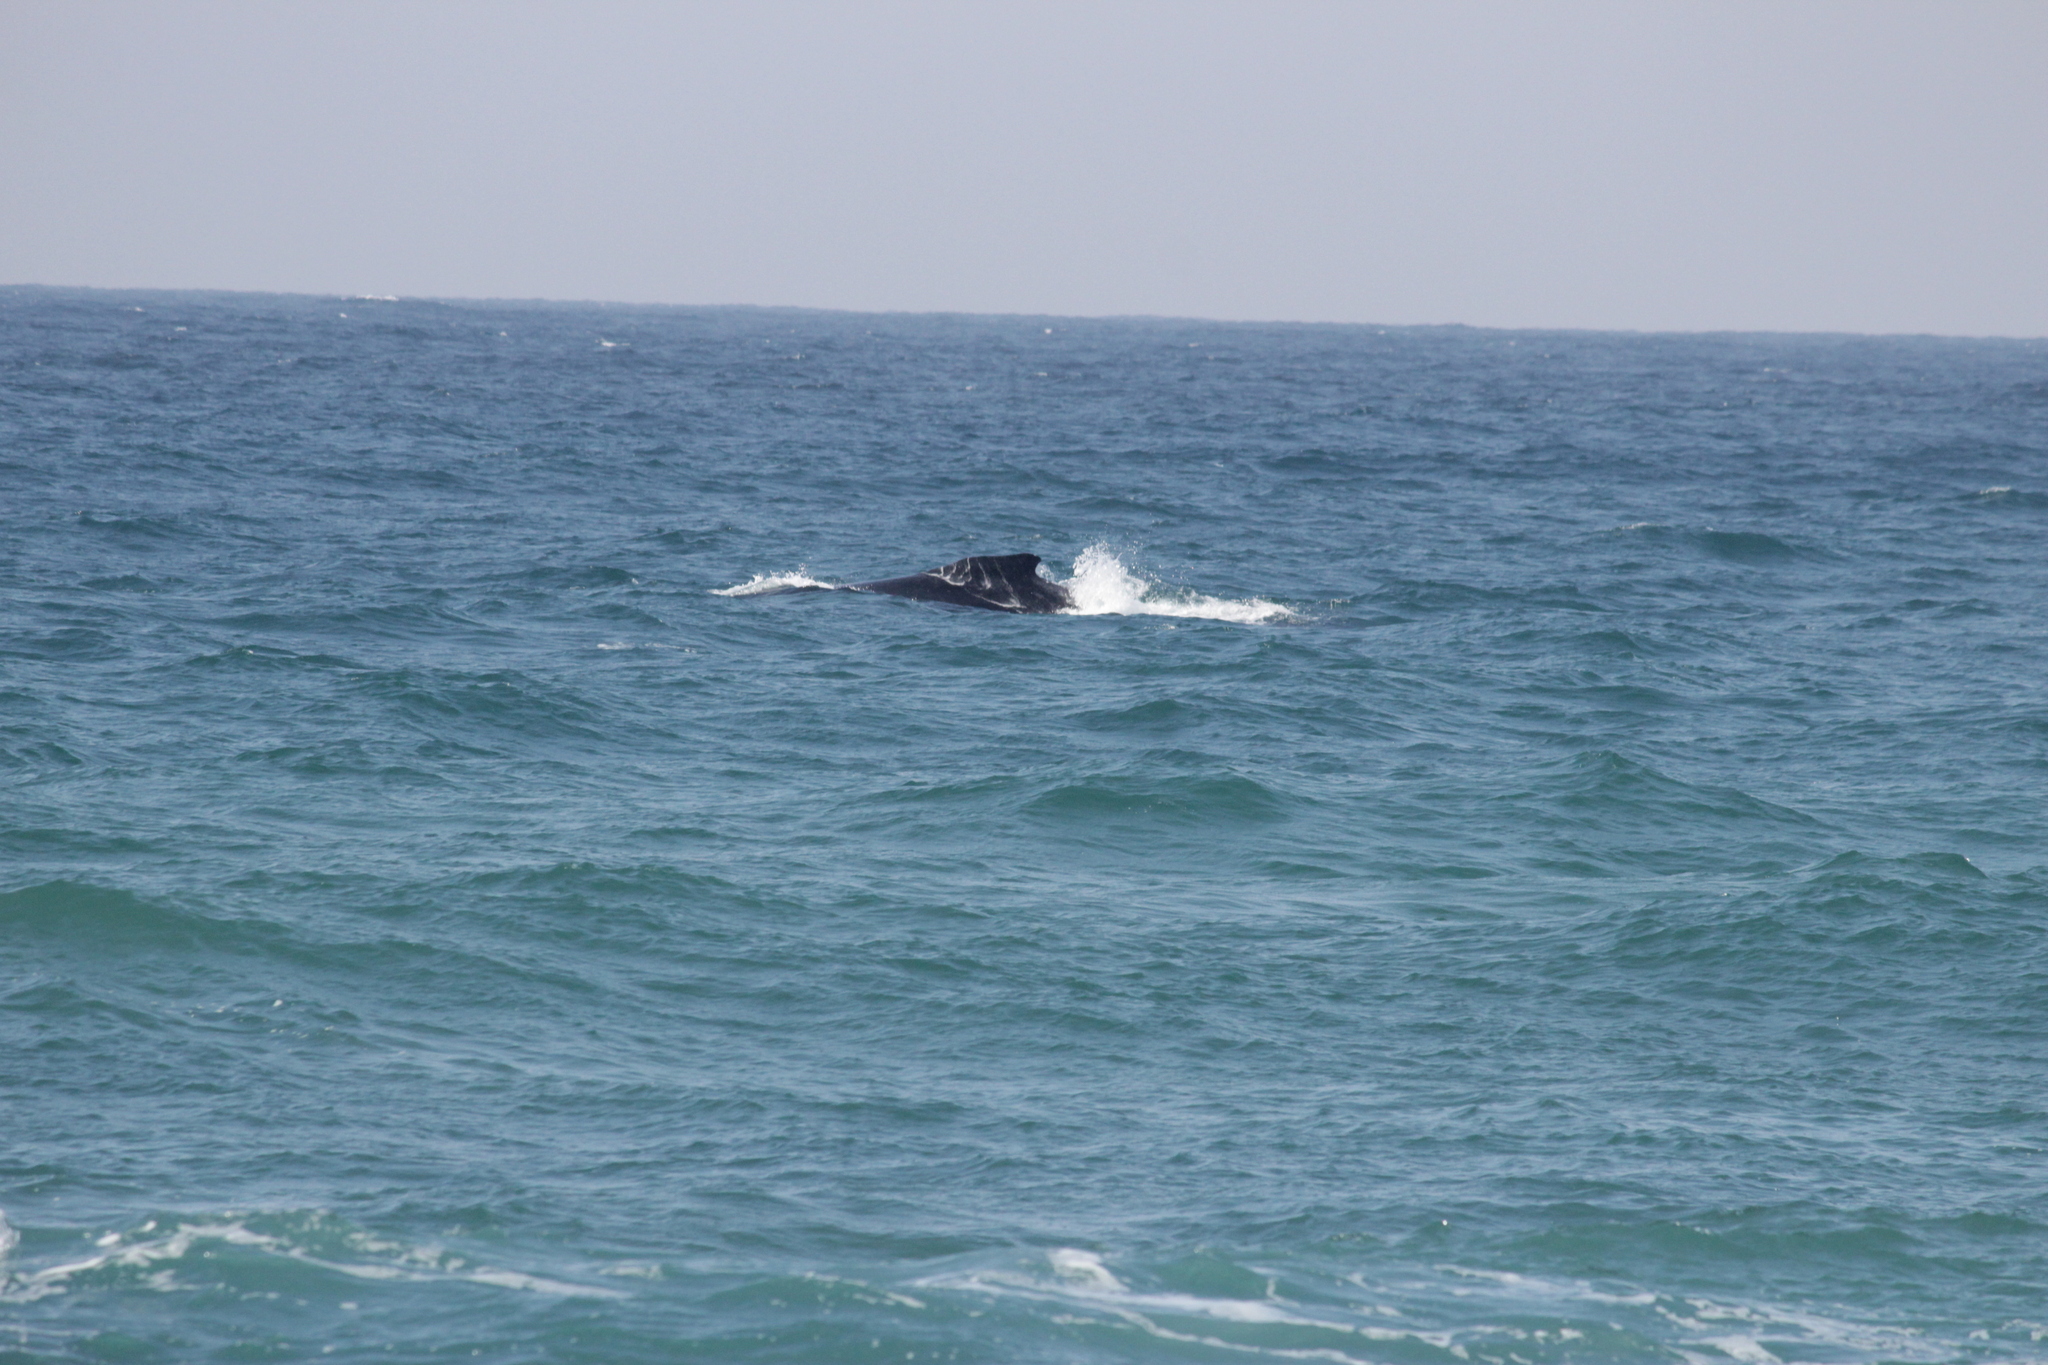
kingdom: Animalia
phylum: Chordata
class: Mammalia
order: Cetacea
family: Balaenopteridae
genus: Megaptera
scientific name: Megaptera novaeangliae
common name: Humpback whale
